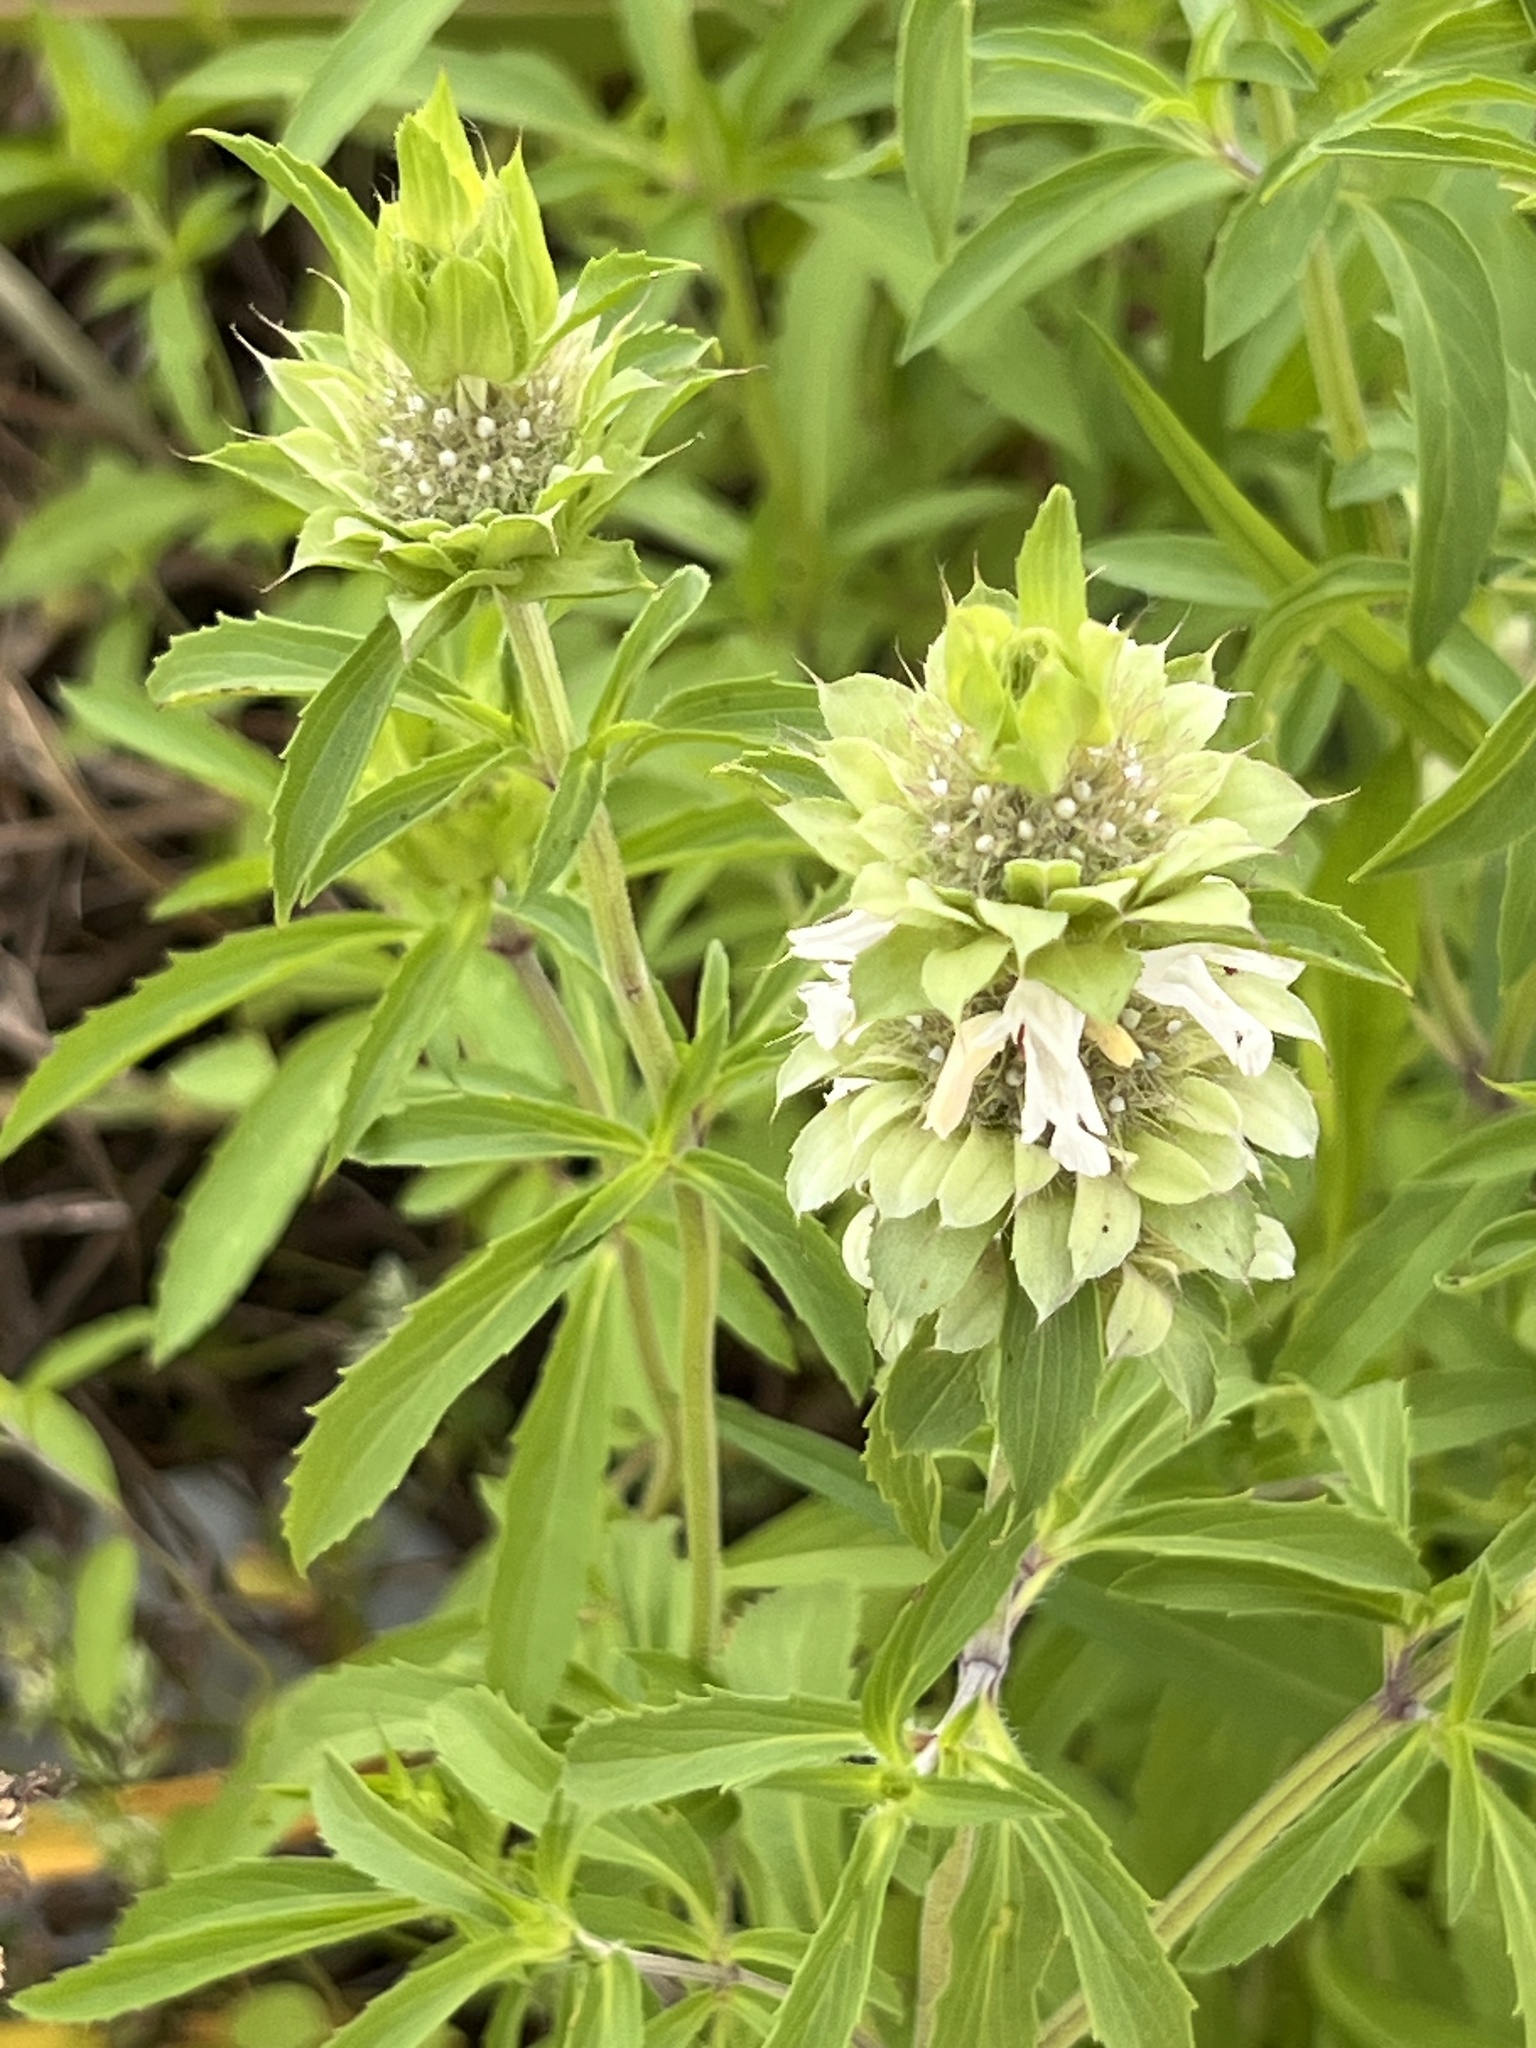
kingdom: Plantae
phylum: Tracheophyta
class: Magnoliopsida
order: Lamiales
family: Lamiaceae
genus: Monarda
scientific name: Monarda citriodora
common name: Lemon beebalm
